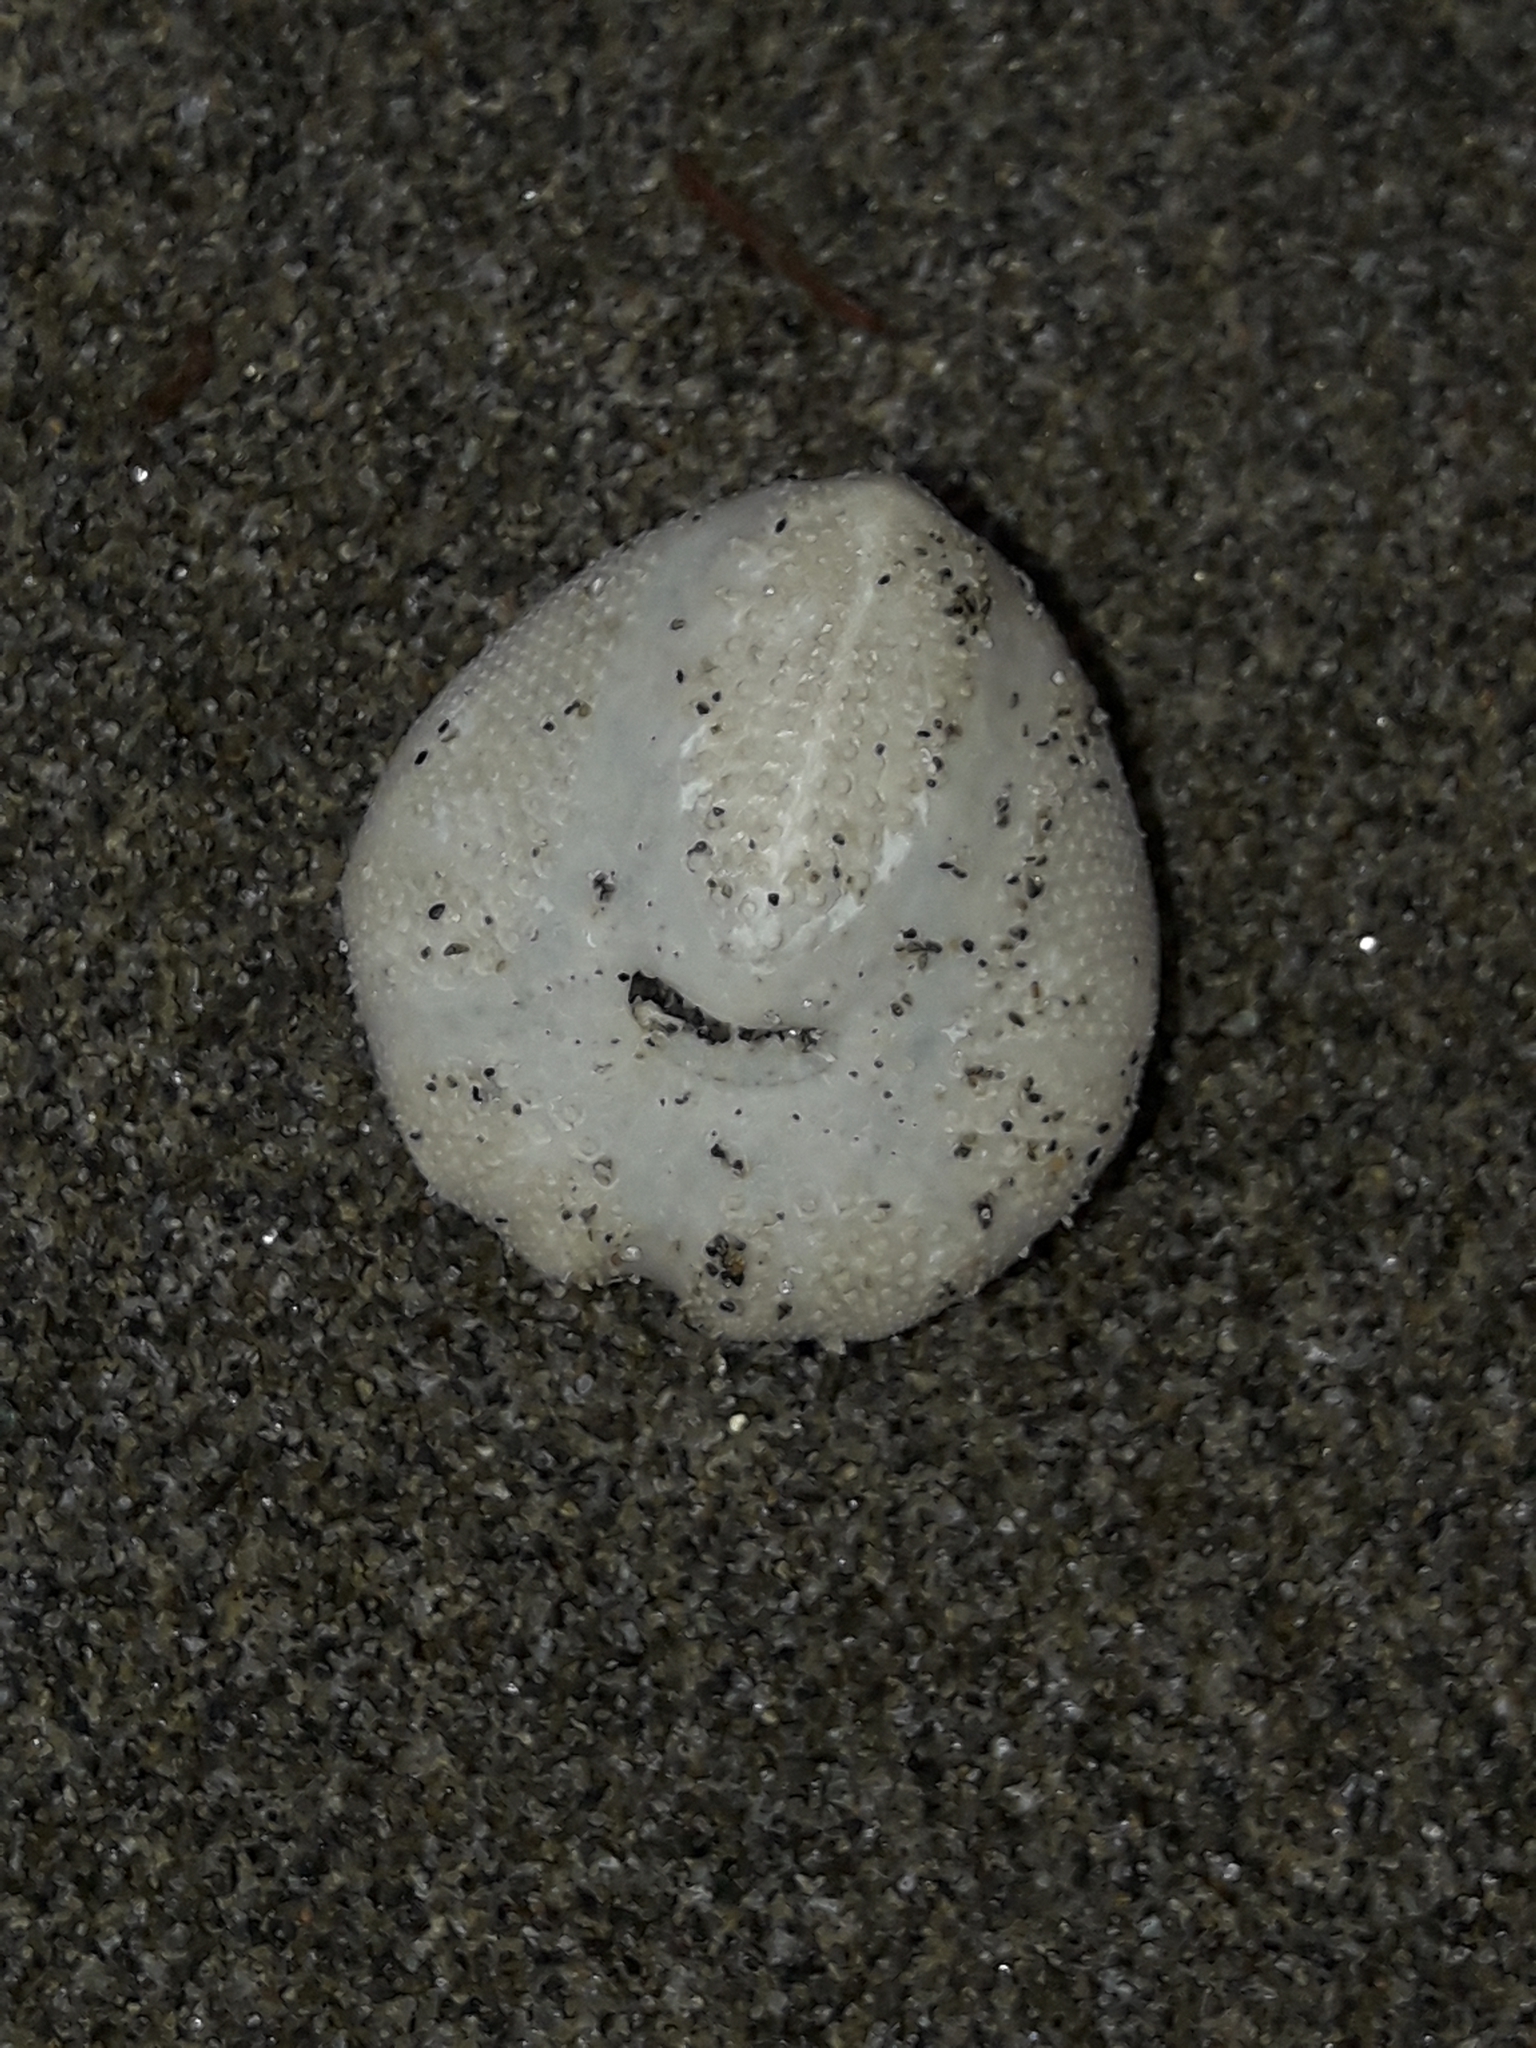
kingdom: Animalia
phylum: Echinodermata
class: Echinoidea
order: Spatangoida
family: Loveniidae
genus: Echinocardium
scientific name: Echinocardium cordatum
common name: Heart-urchin
